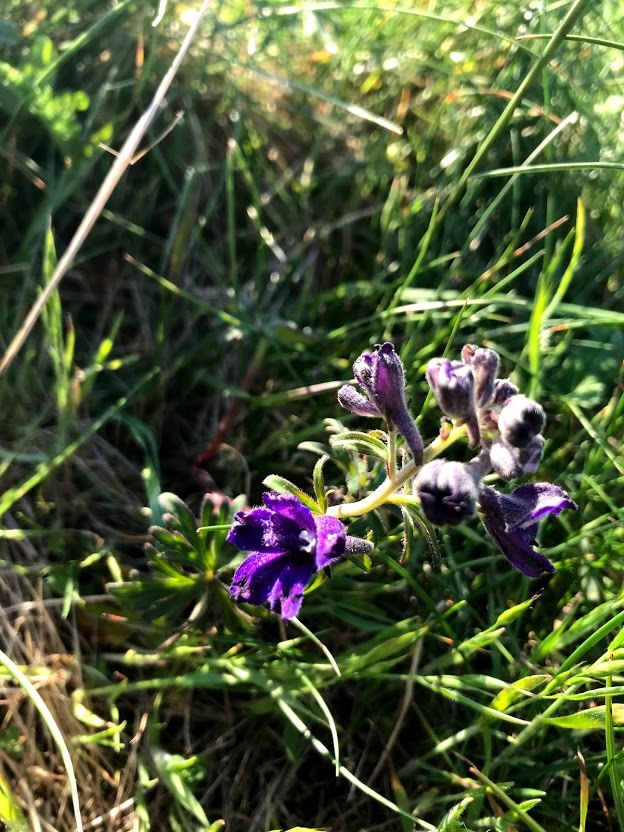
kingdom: Plantae
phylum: Tracheophyta
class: Magnoliopsida
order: Ranunculales
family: Ranunculaceae
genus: Delphinium
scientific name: Delphinium menziesii
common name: Menzies's larkspur
